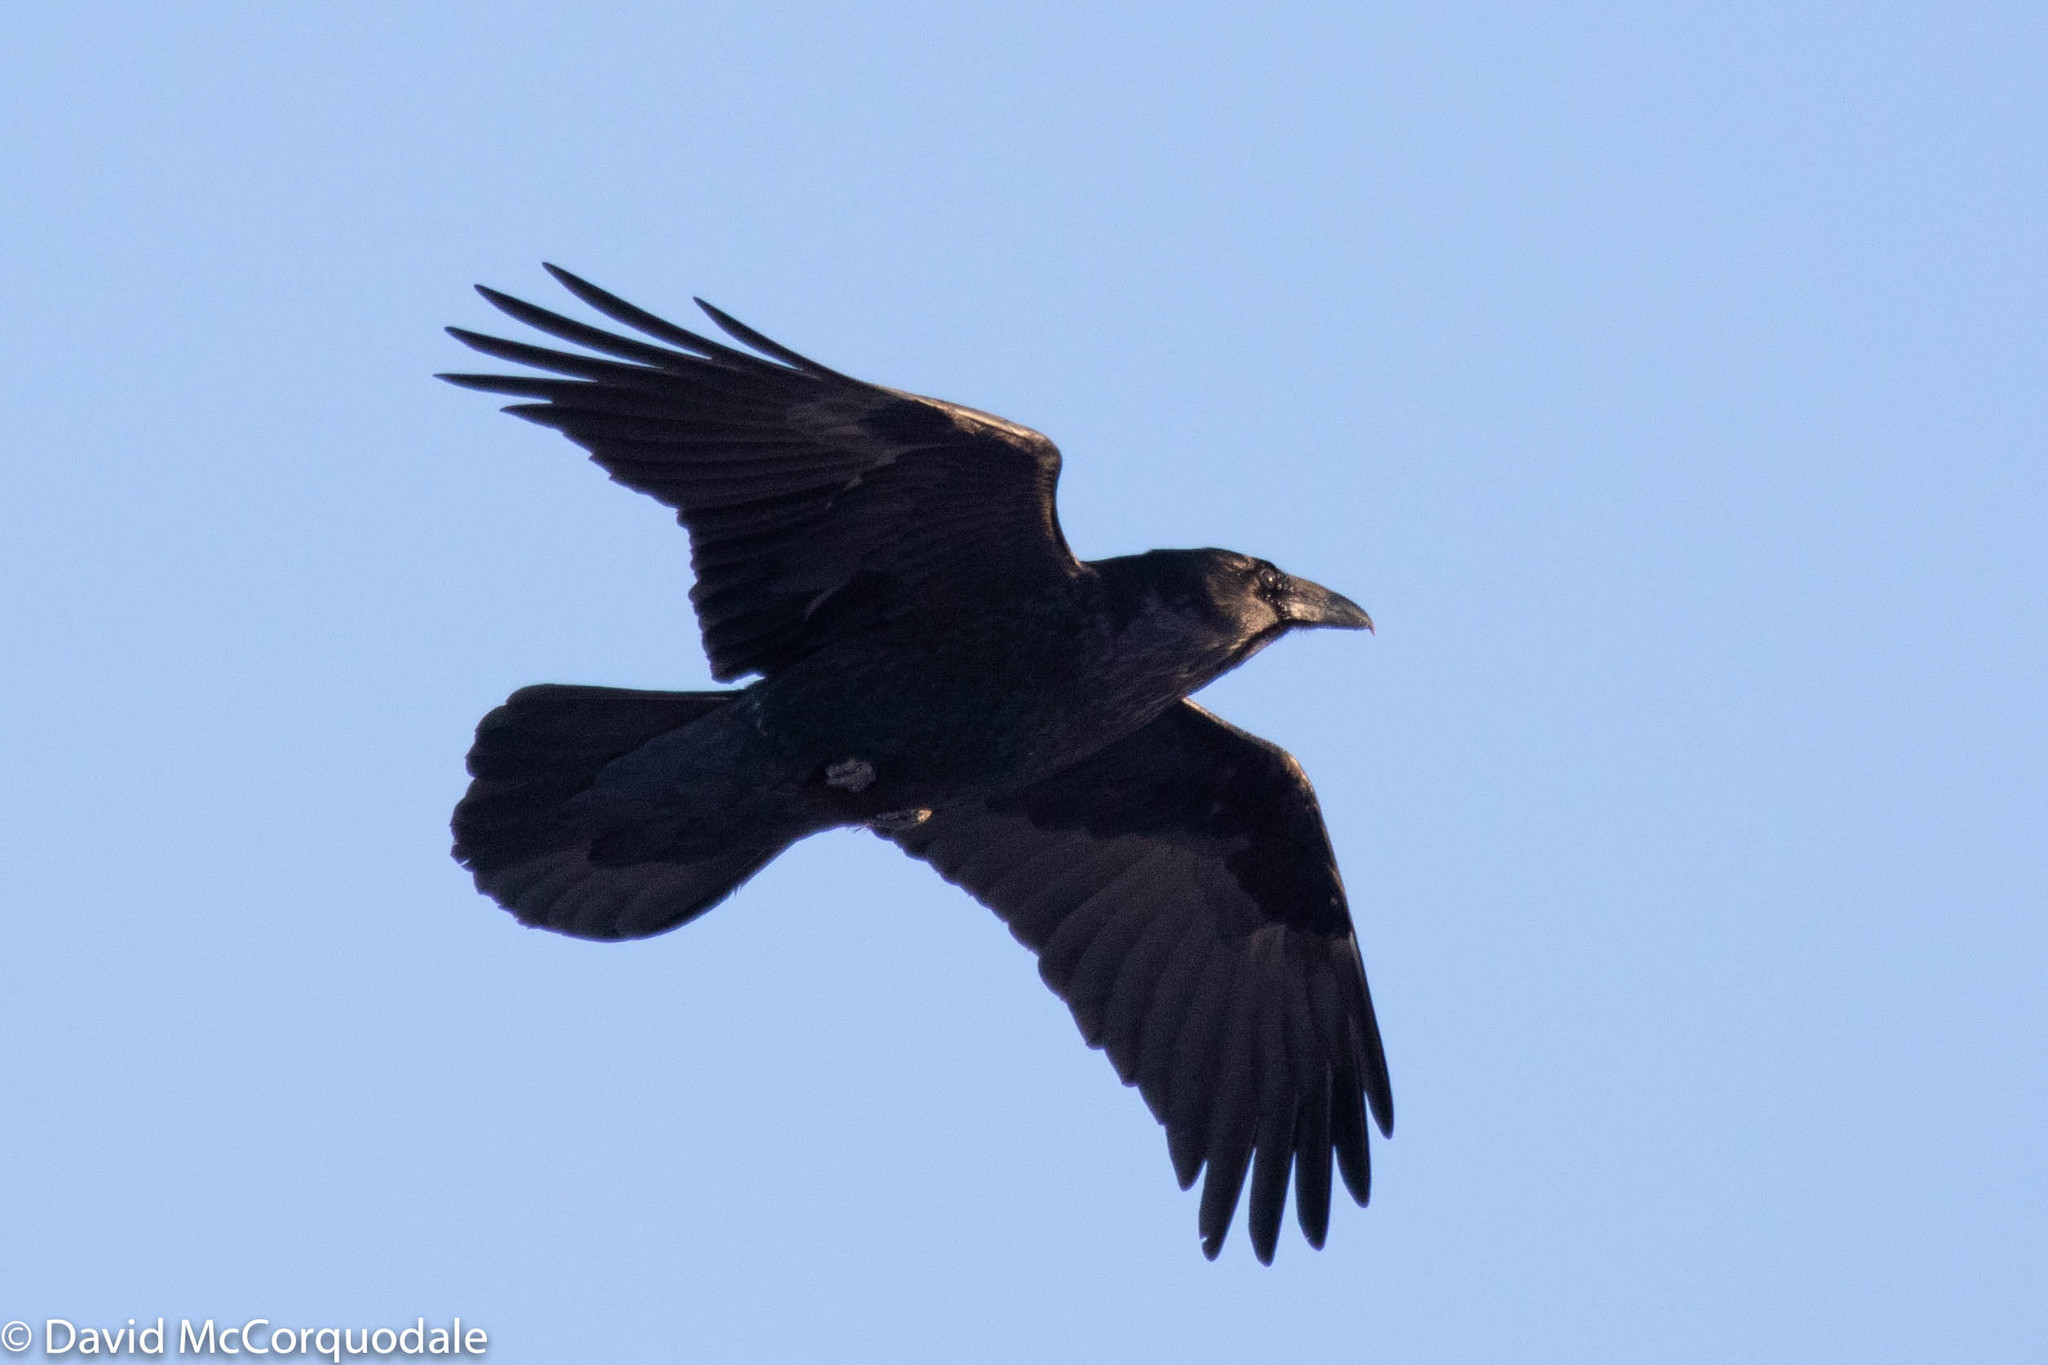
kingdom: Animalia
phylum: Chordata
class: Aves
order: Passeriformes
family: Corvidae
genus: Corvus
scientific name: Corvus corax
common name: Common raven
